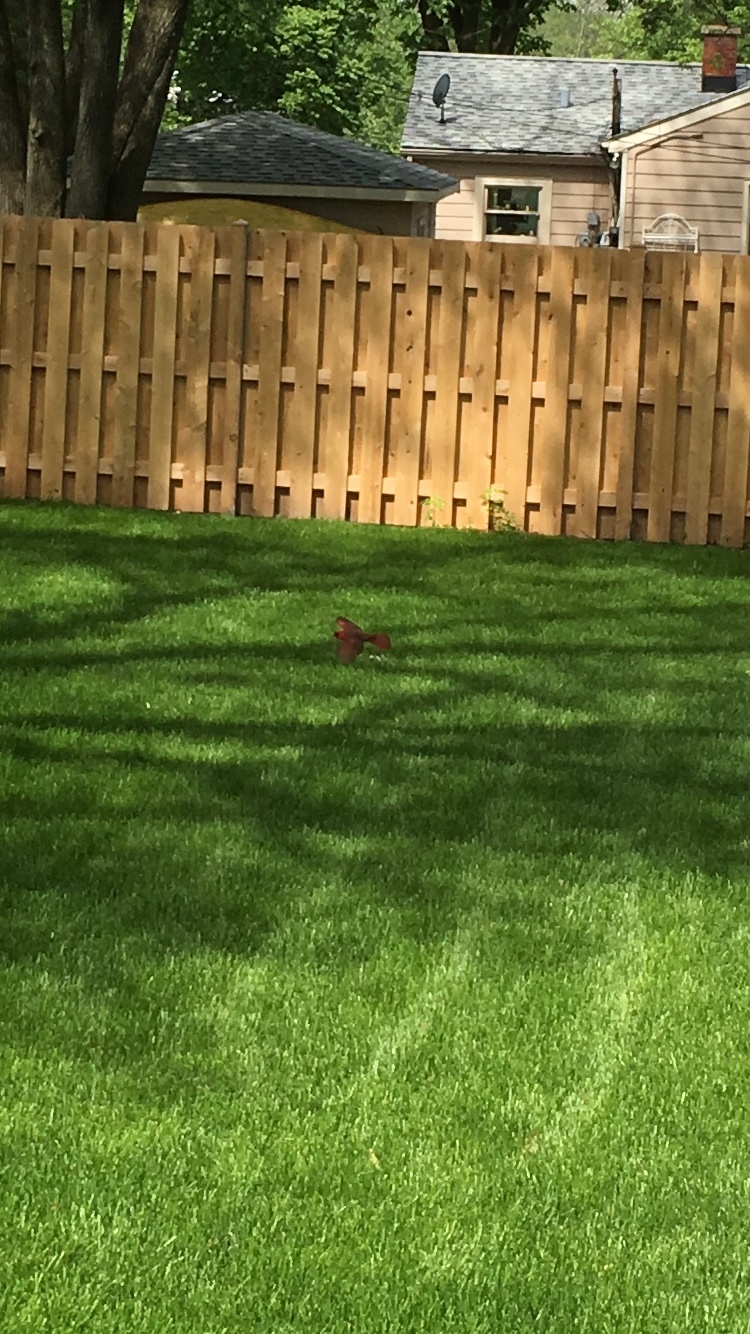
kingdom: Animalia
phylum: Chordata
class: Aves
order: Passeriformes
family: Cardinalidae
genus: Cardinalis
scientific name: Cardinalis cardinalis
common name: Northern cardinal
